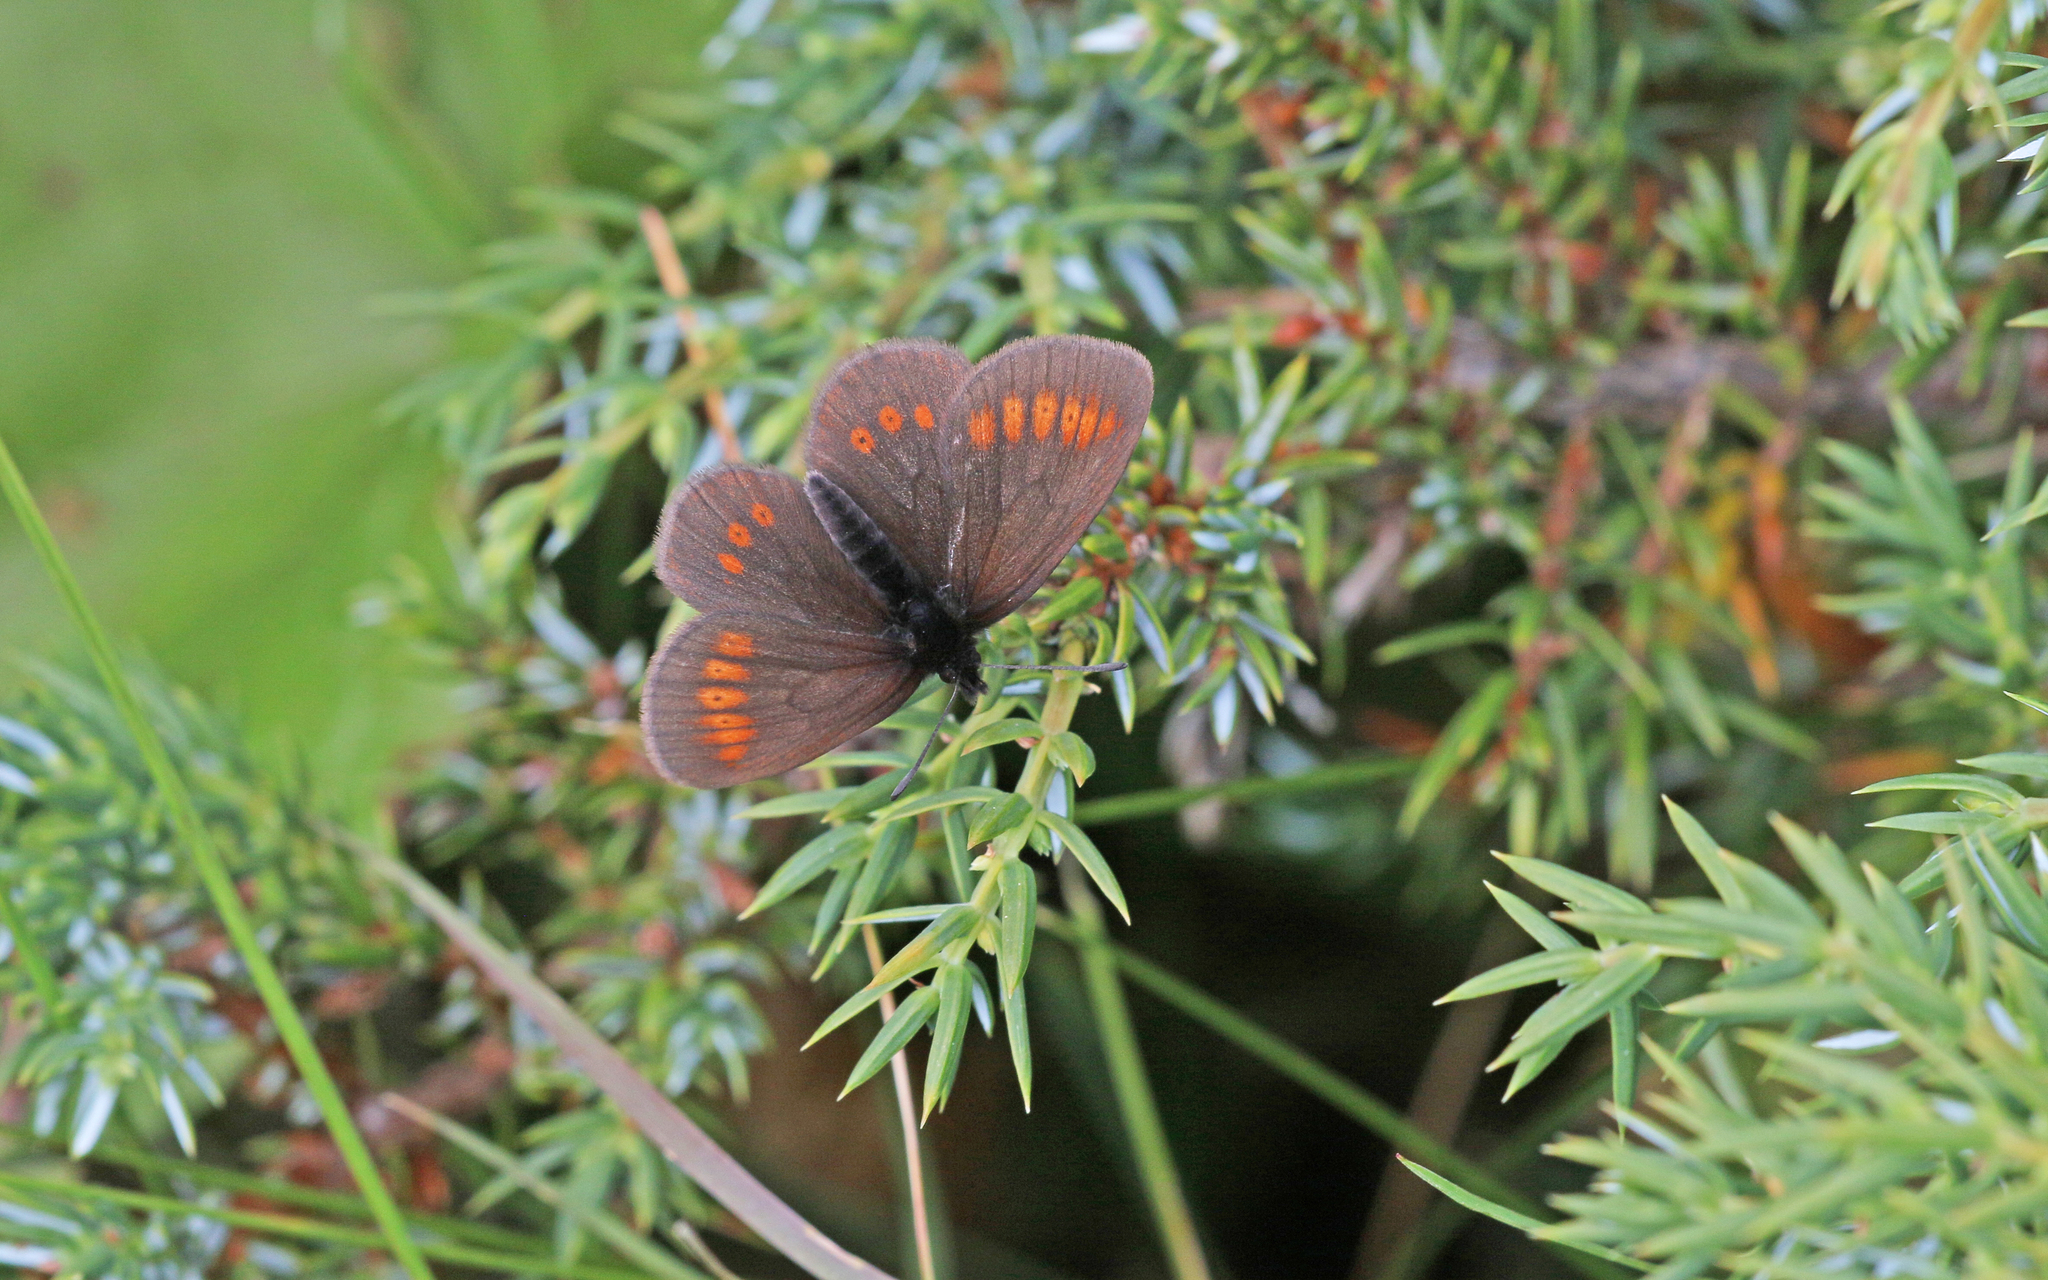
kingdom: Animalia
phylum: Arthropoda
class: Insecta
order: Lepidoptera
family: Nymphalidae
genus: Erebia
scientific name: Erebia melampus
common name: Lesser mountain ringlet
